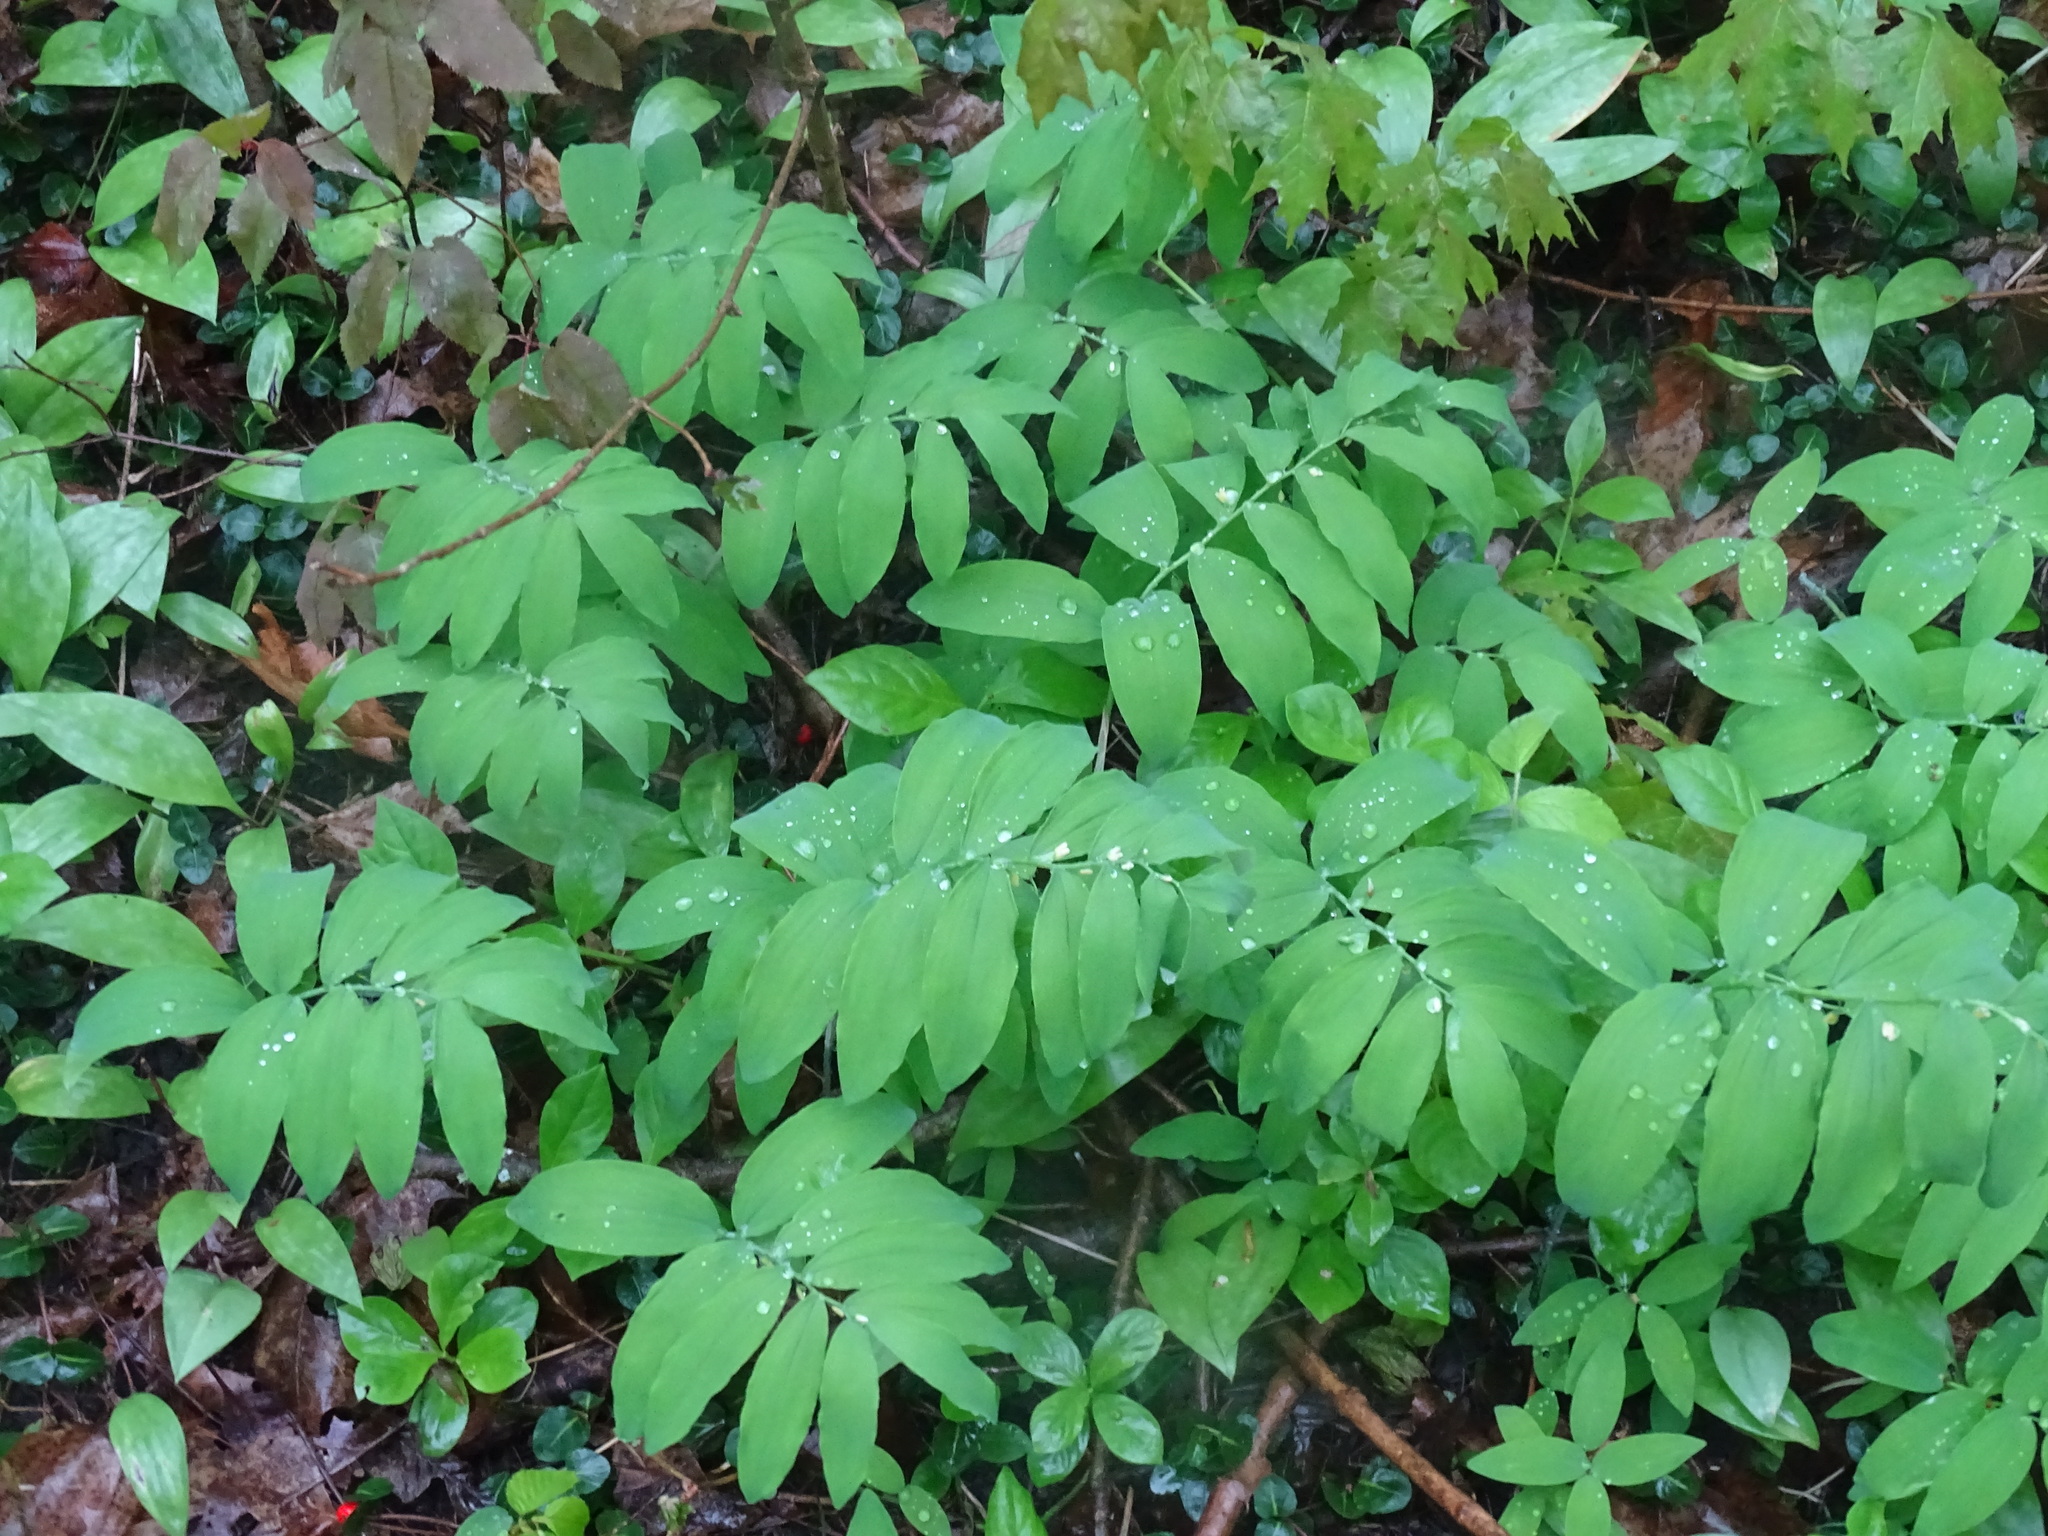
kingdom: Plantae
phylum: Tracheophyta
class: Liliopsida
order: Asparagales
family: Asparagaceae
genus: Polygonatum
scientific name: Polygonatum pubescens
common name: Downy solomon's seal
